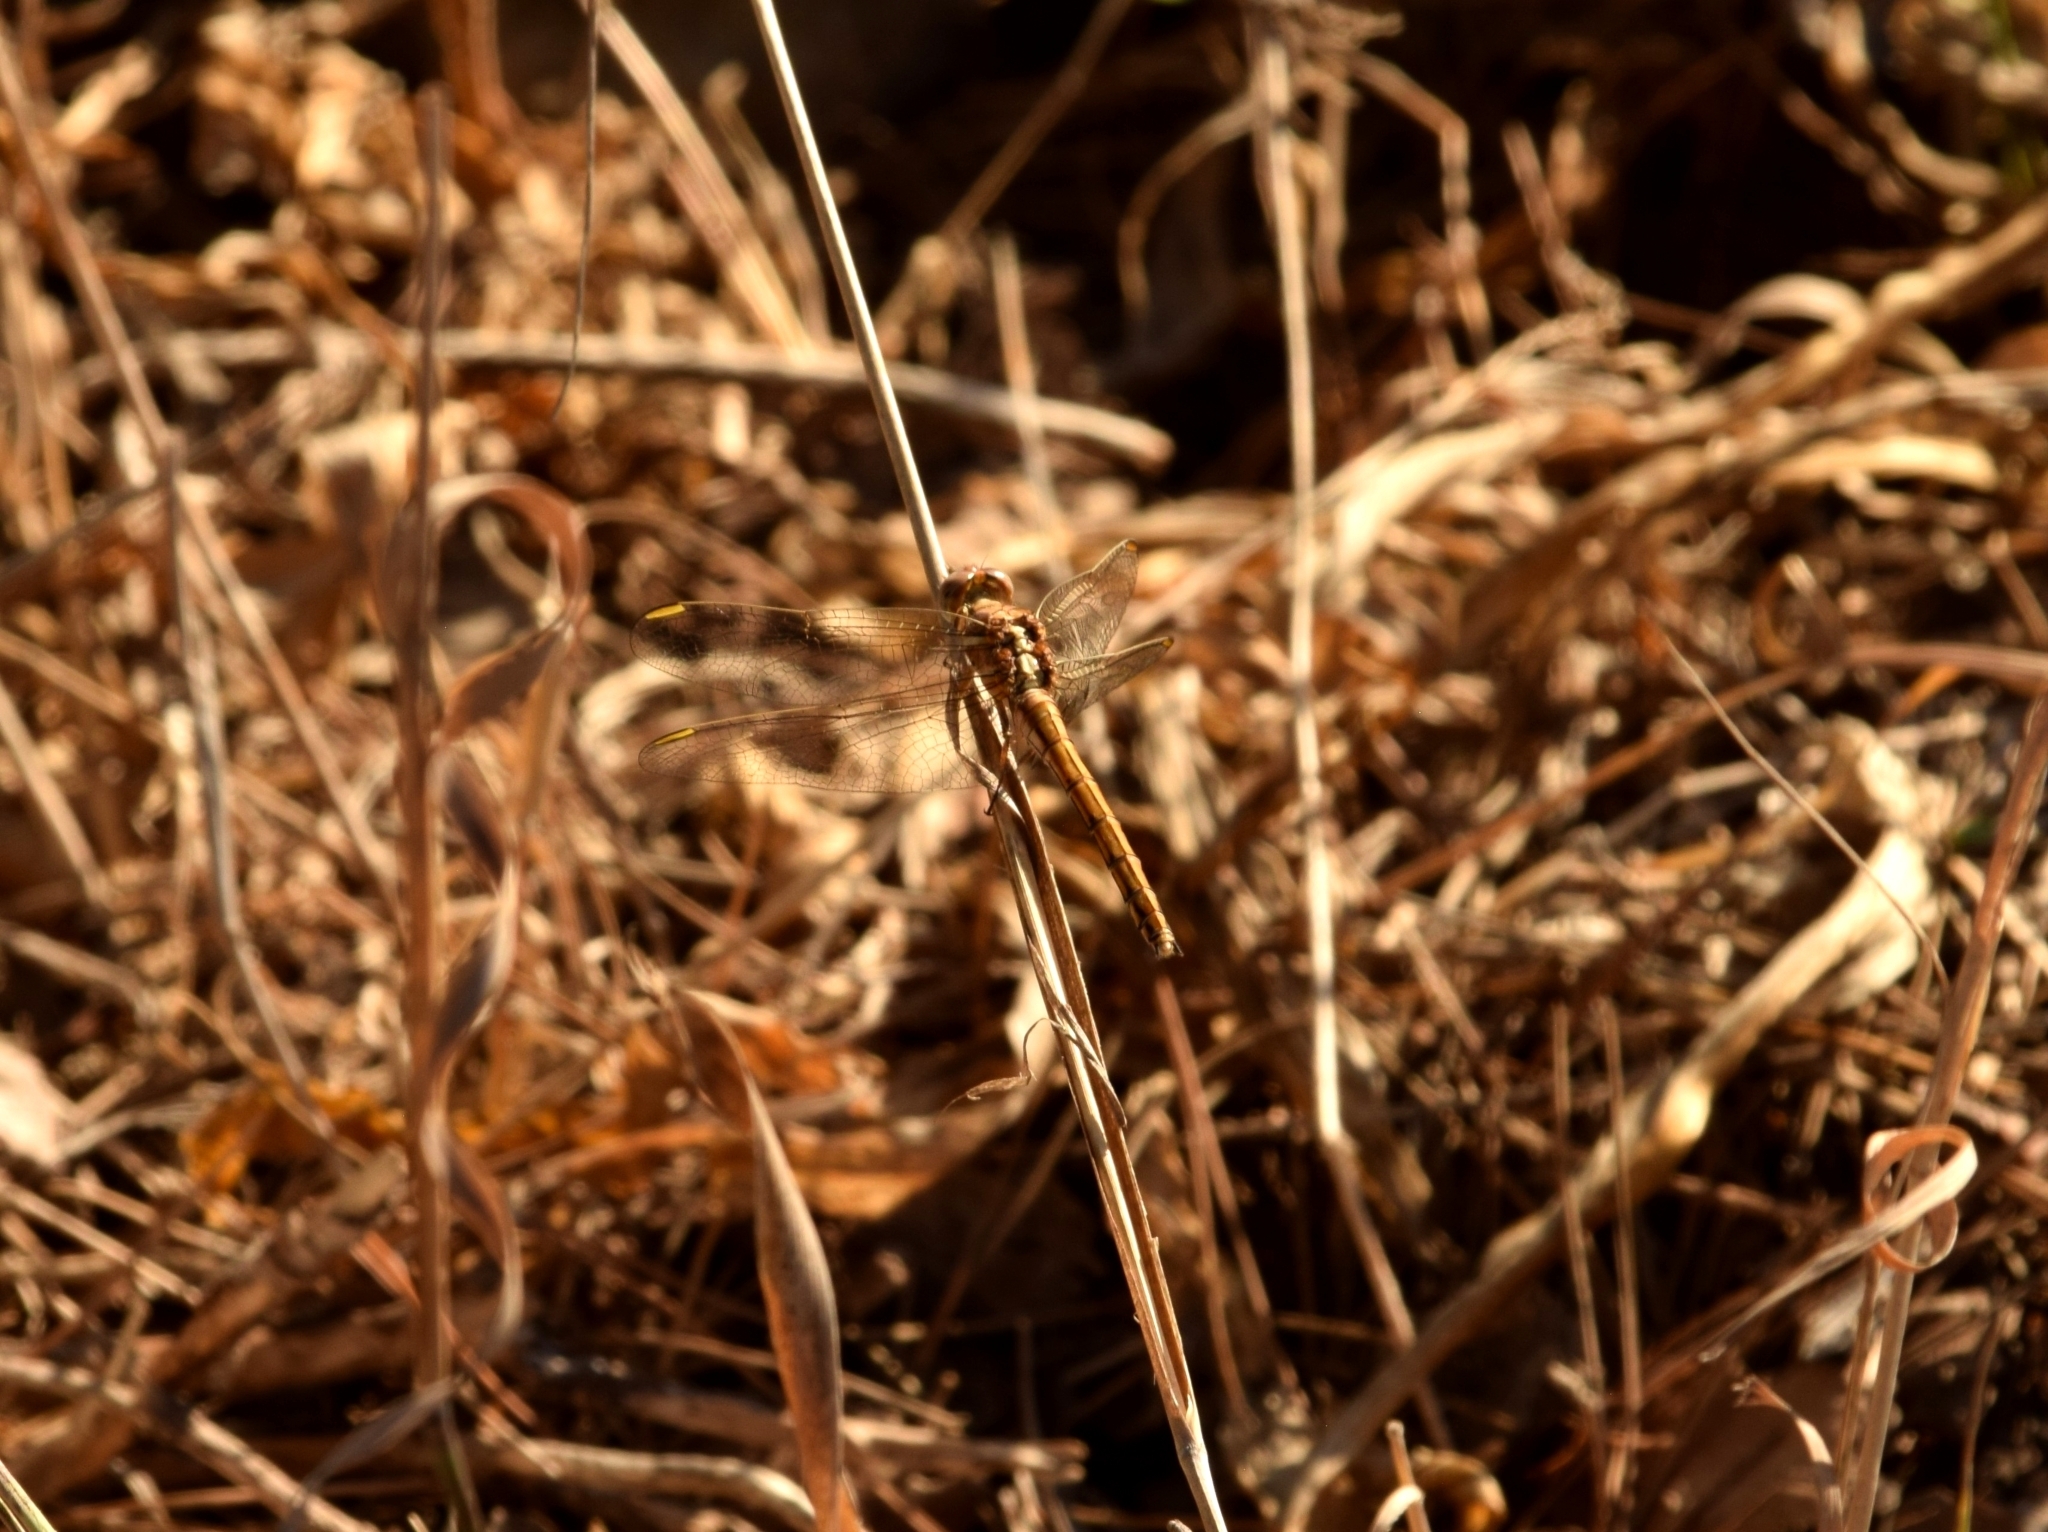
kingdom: Animalia
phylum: Arthropoda
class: Insecta
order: Odonata
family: Libellulidae
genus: Orthetrum
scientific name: Orthetrum chrysostigma
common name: Epaulet skimmer
